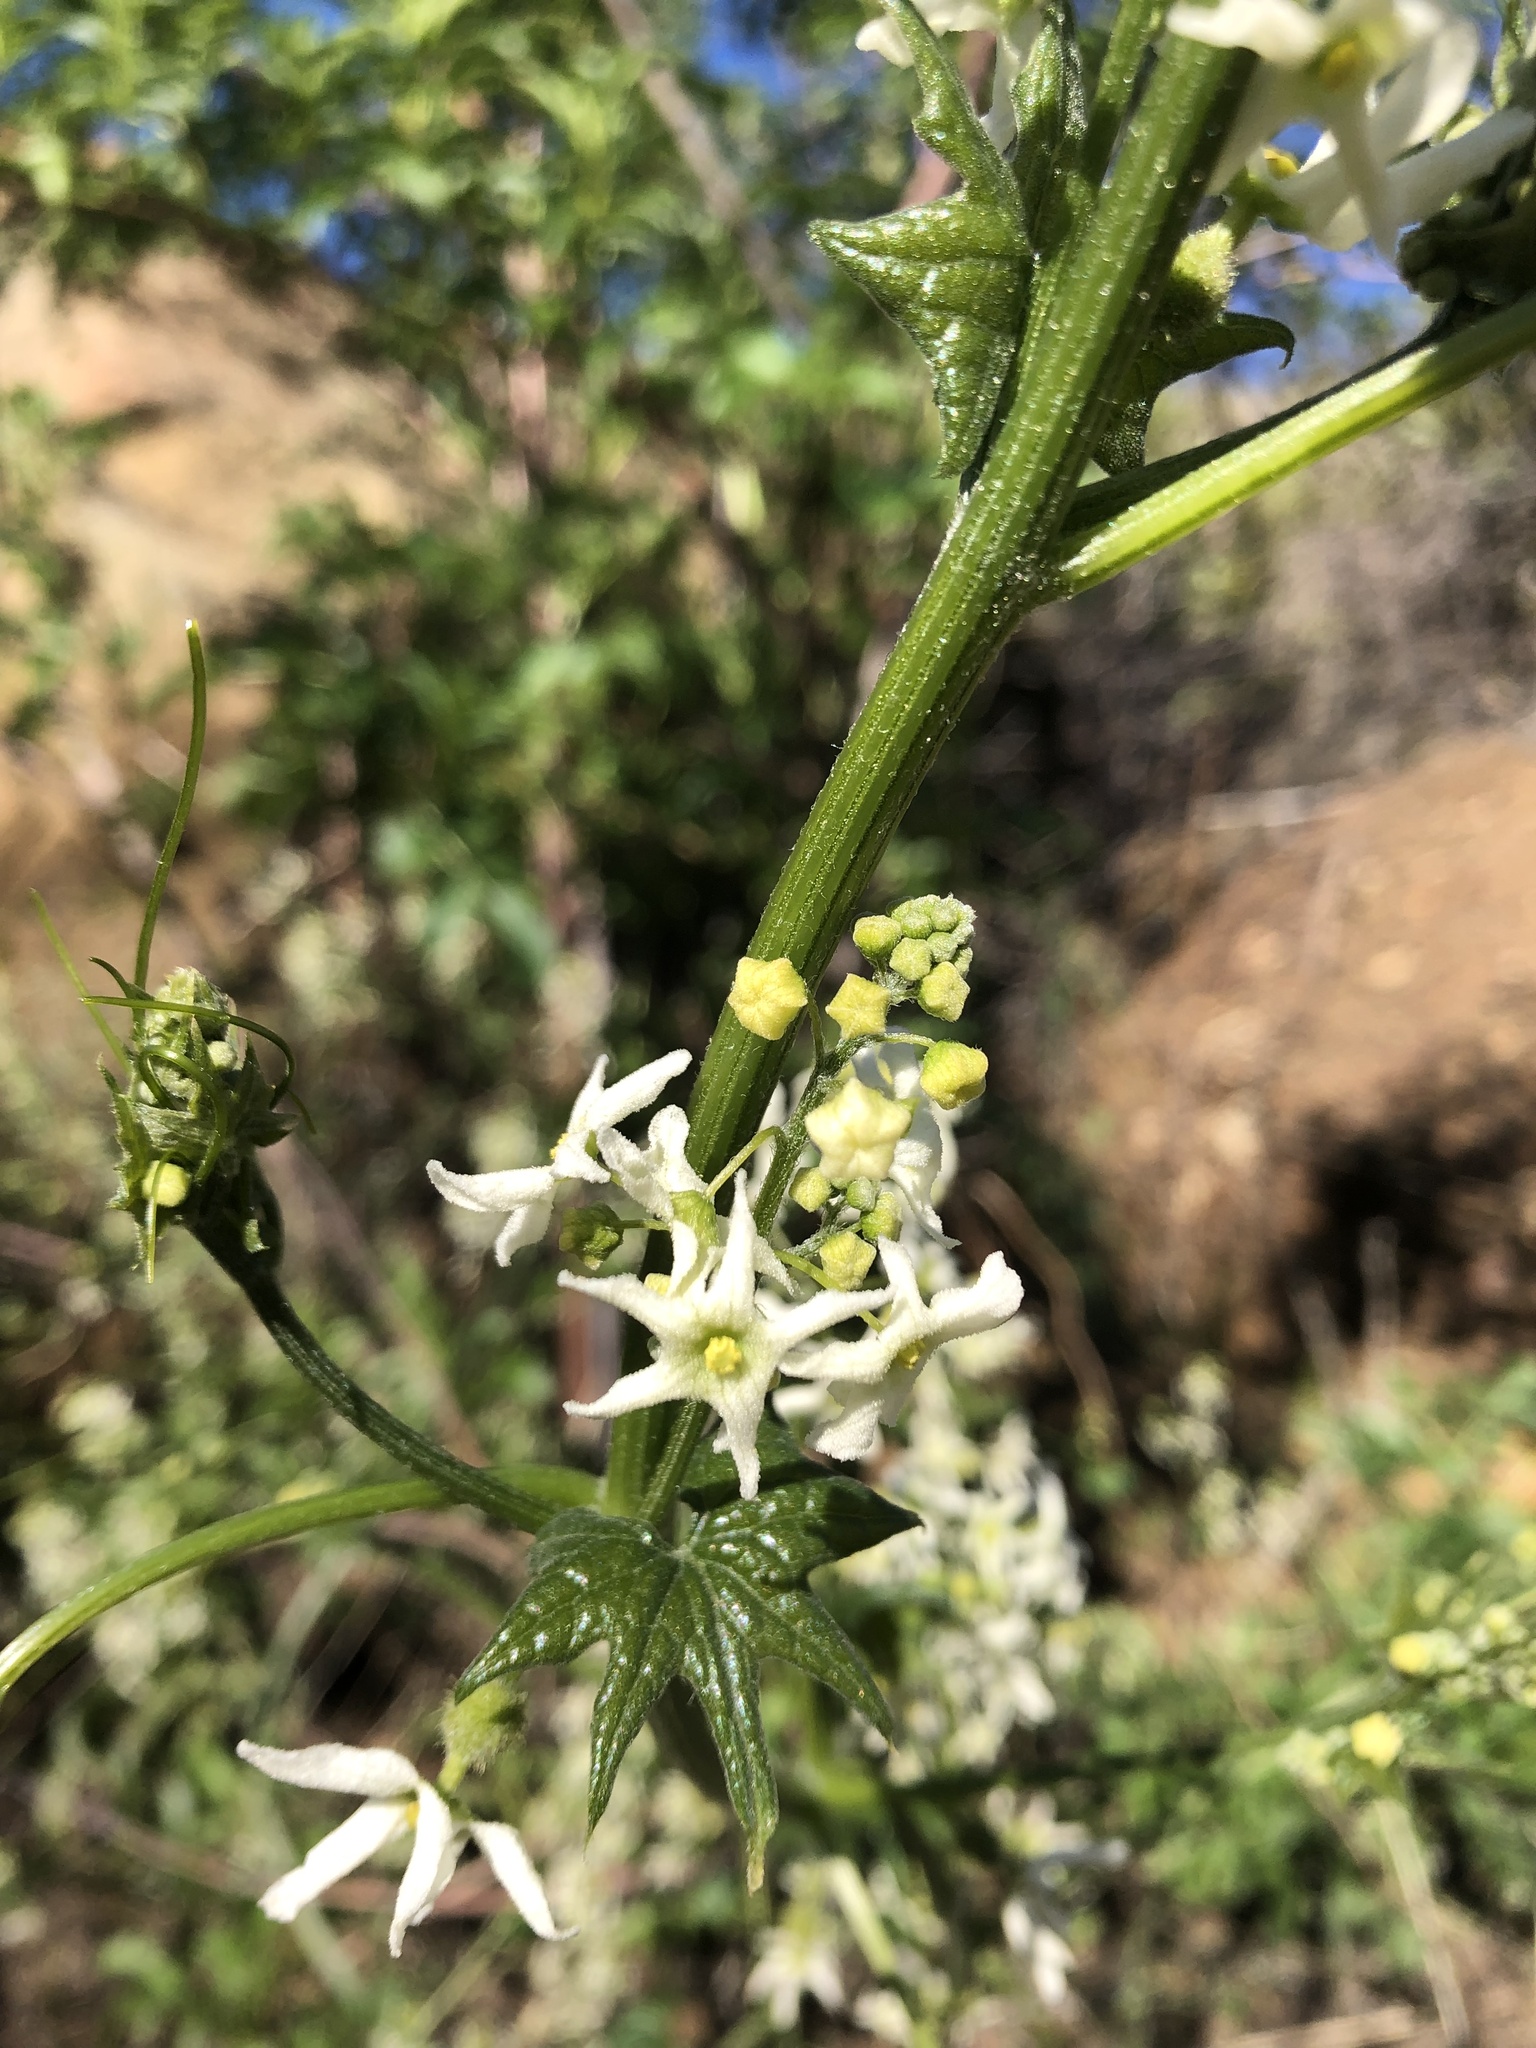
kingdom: Plantae
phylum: Tracheophyta
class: Magnoliopsida
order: Cucurbitales
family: Cucurbitaceae
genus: Marah
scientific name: Marah fabacea
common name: California manroot
